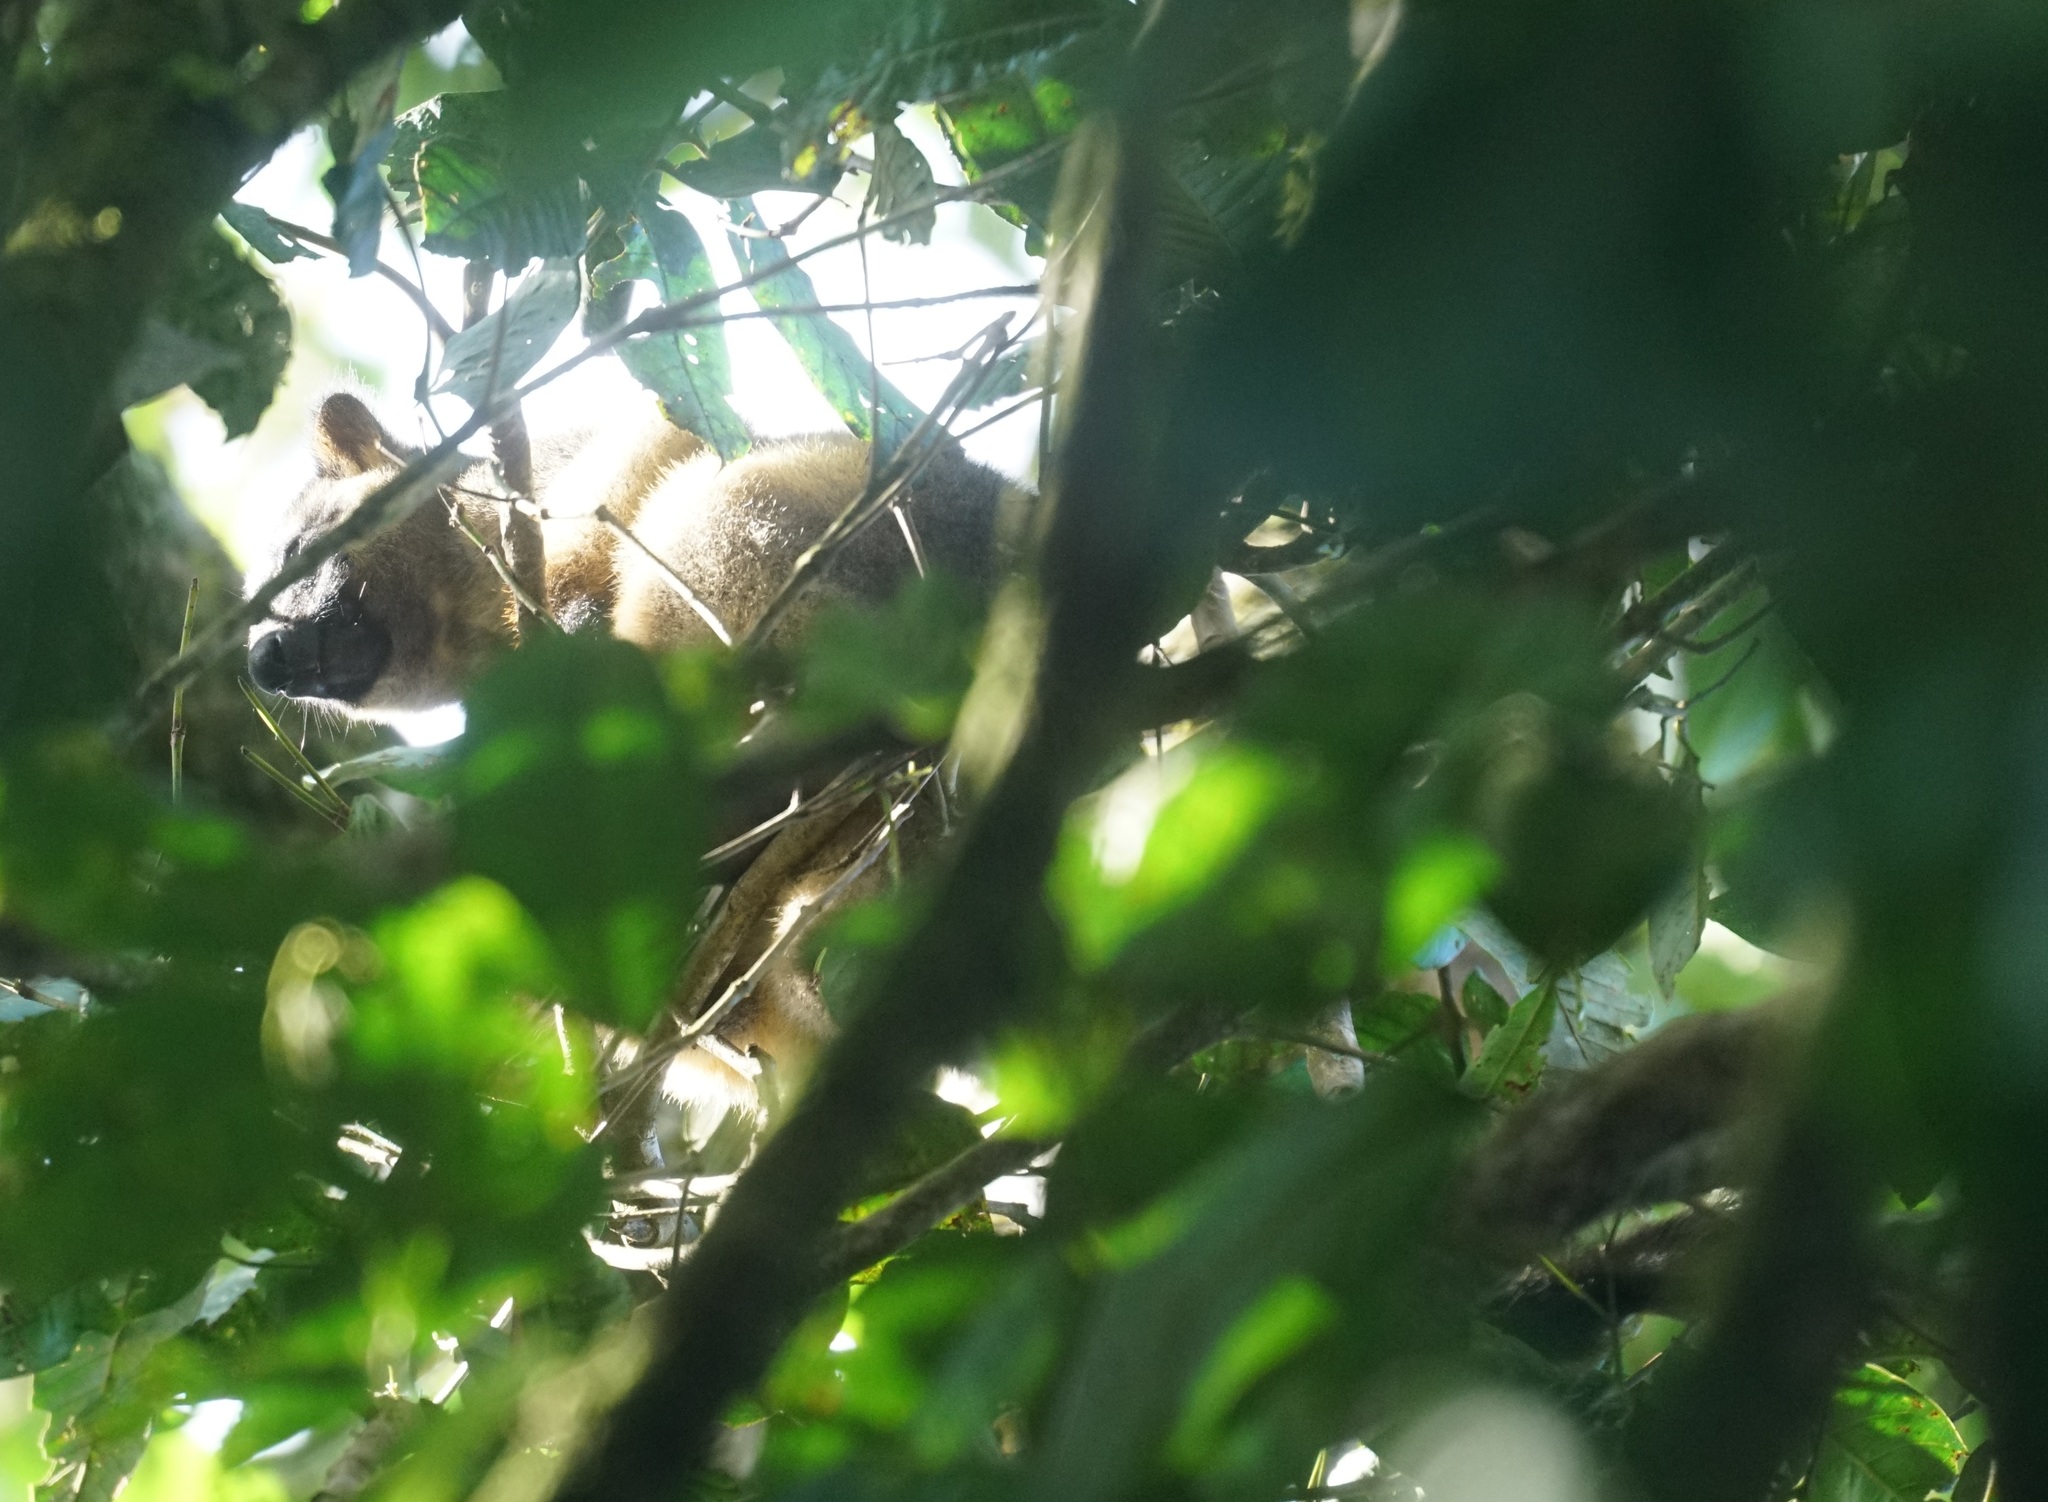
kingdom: Animalia
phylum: Chordata
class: Mammalia
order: Diprotodontia
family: Macropodidae
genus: Dendrolagus
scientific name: Dendrolagus lumholtzi
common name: Lumholtz's tree kangaroo
